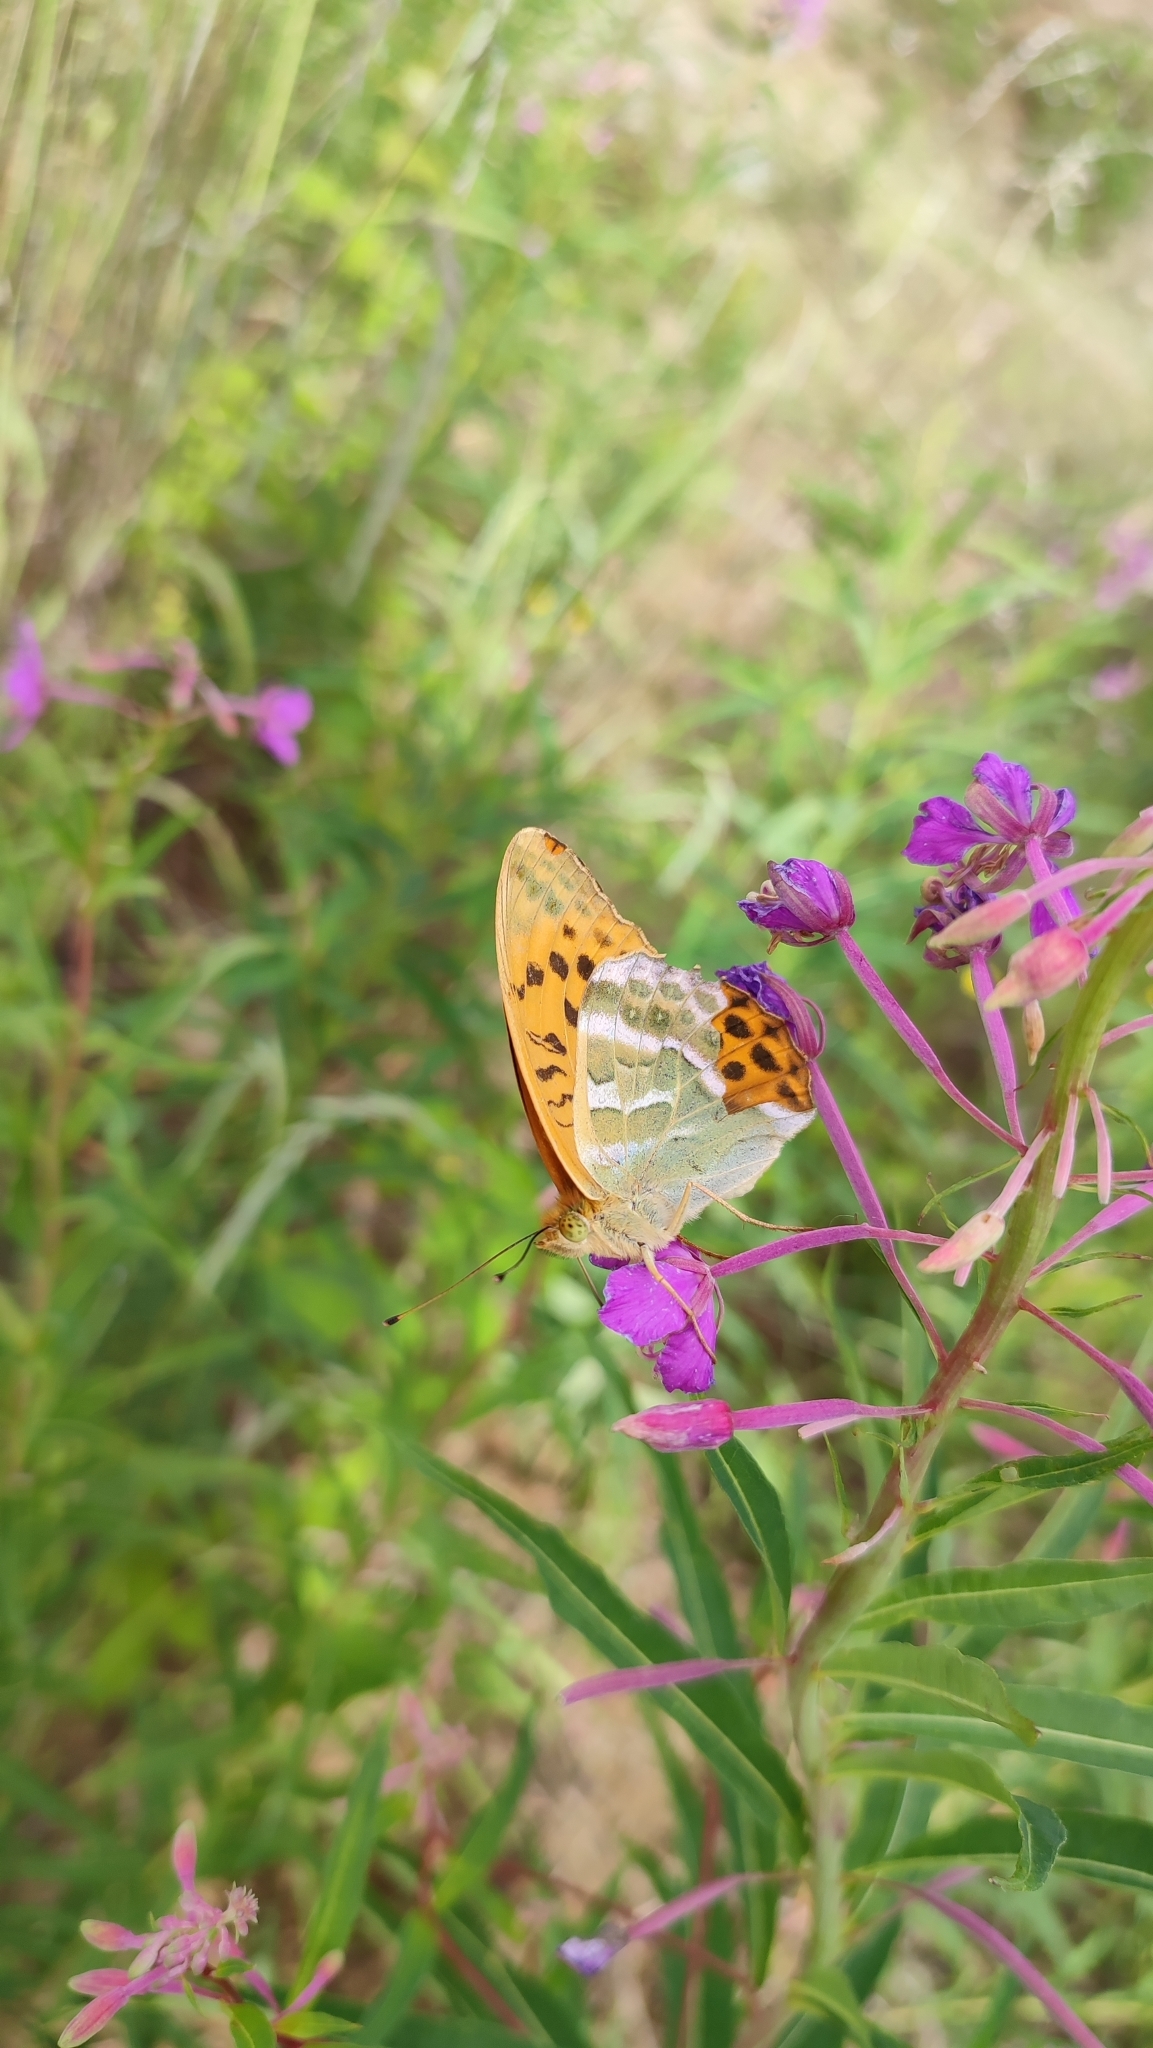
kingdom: Animalia
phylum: Arthropoda
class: Insecta
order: Lepidoptera
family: Nymphalidae
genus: Argynnis
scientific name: Argynnis paphia
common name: Silver-washed fritillary
